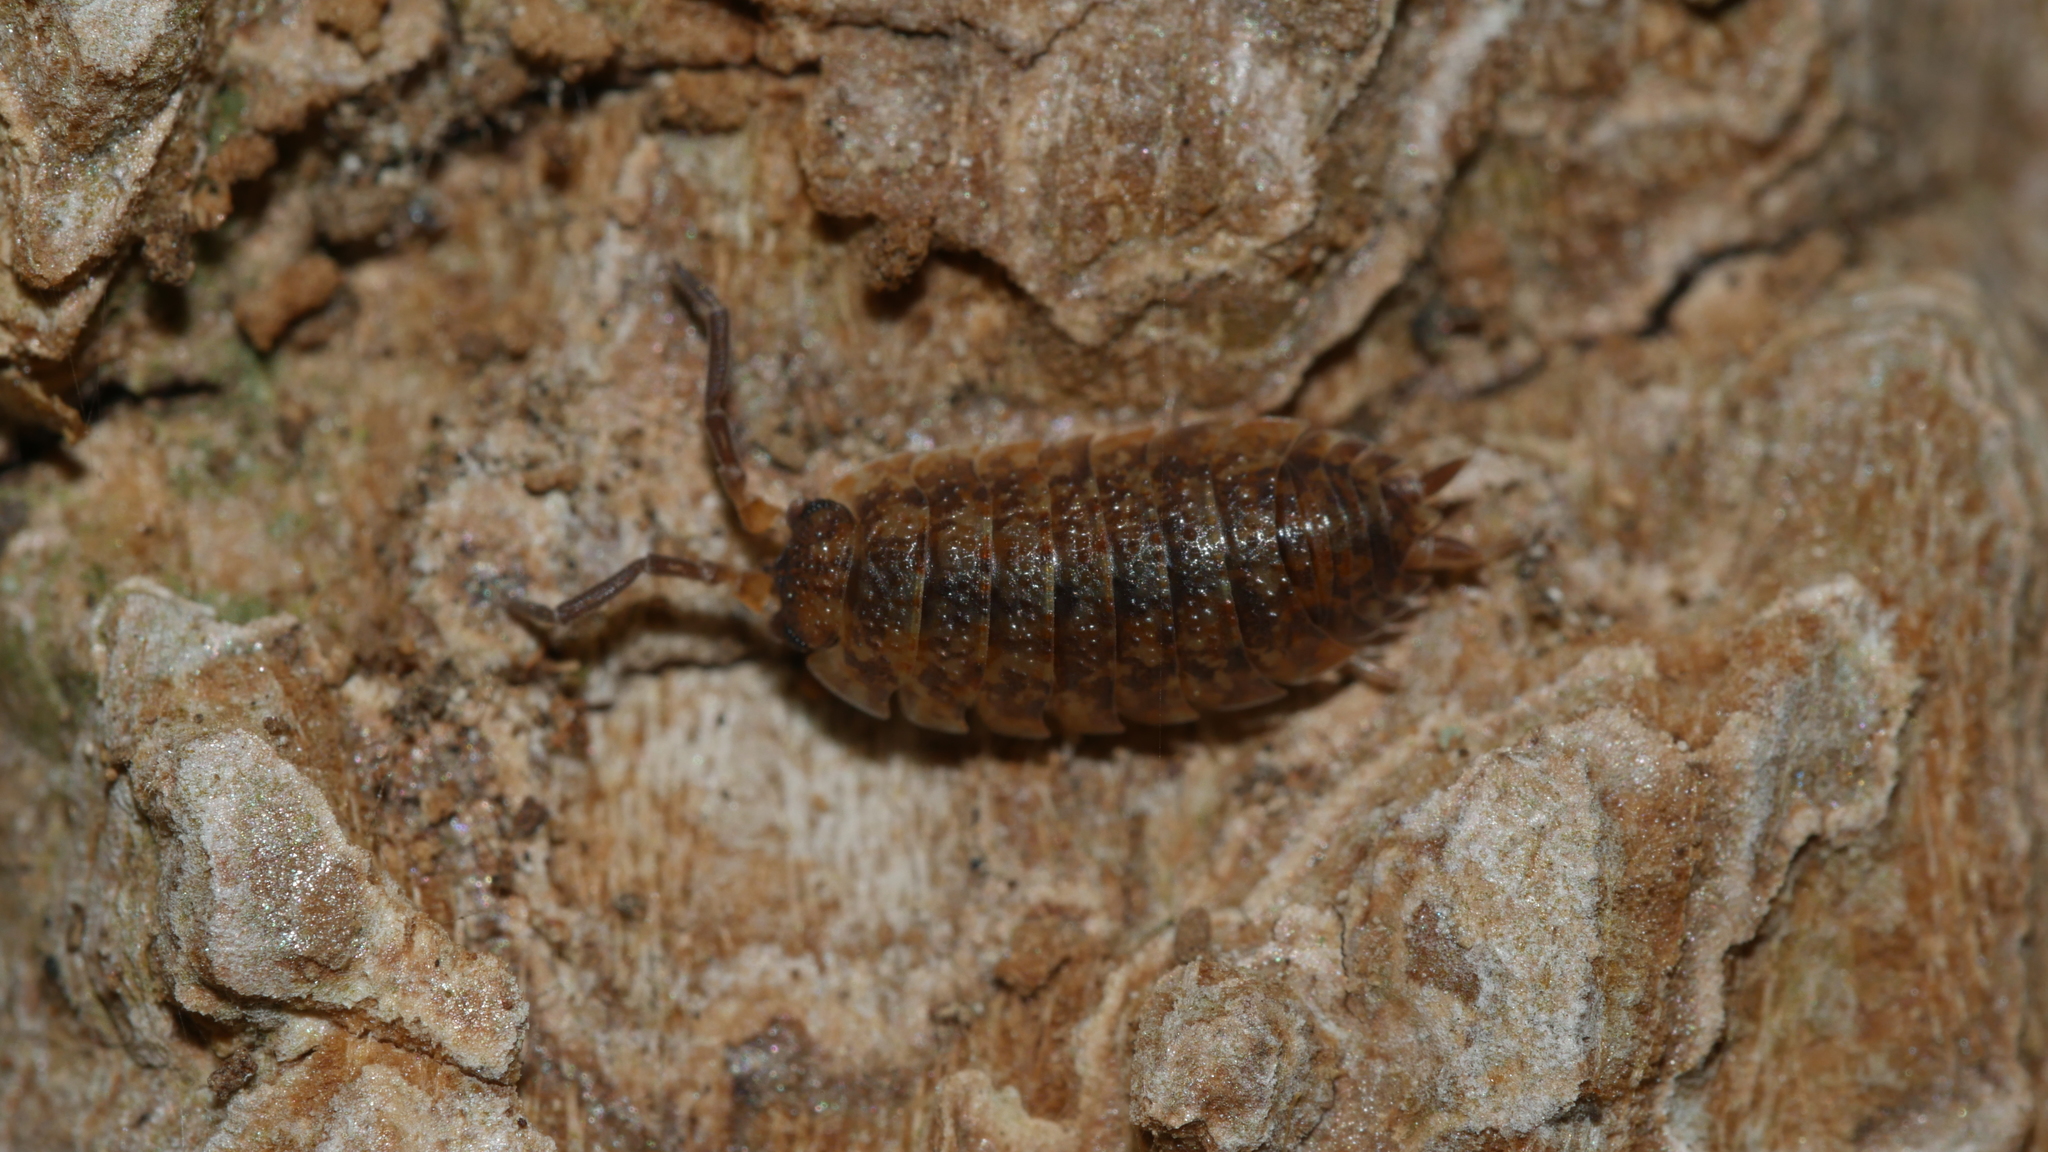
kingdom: Animalia
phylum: Arthropoda
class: Malacostraca
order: Isopoda
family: Porcellionidae
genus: Porcellio
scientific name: Porcellio scaber
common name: Common rough woodlouse
